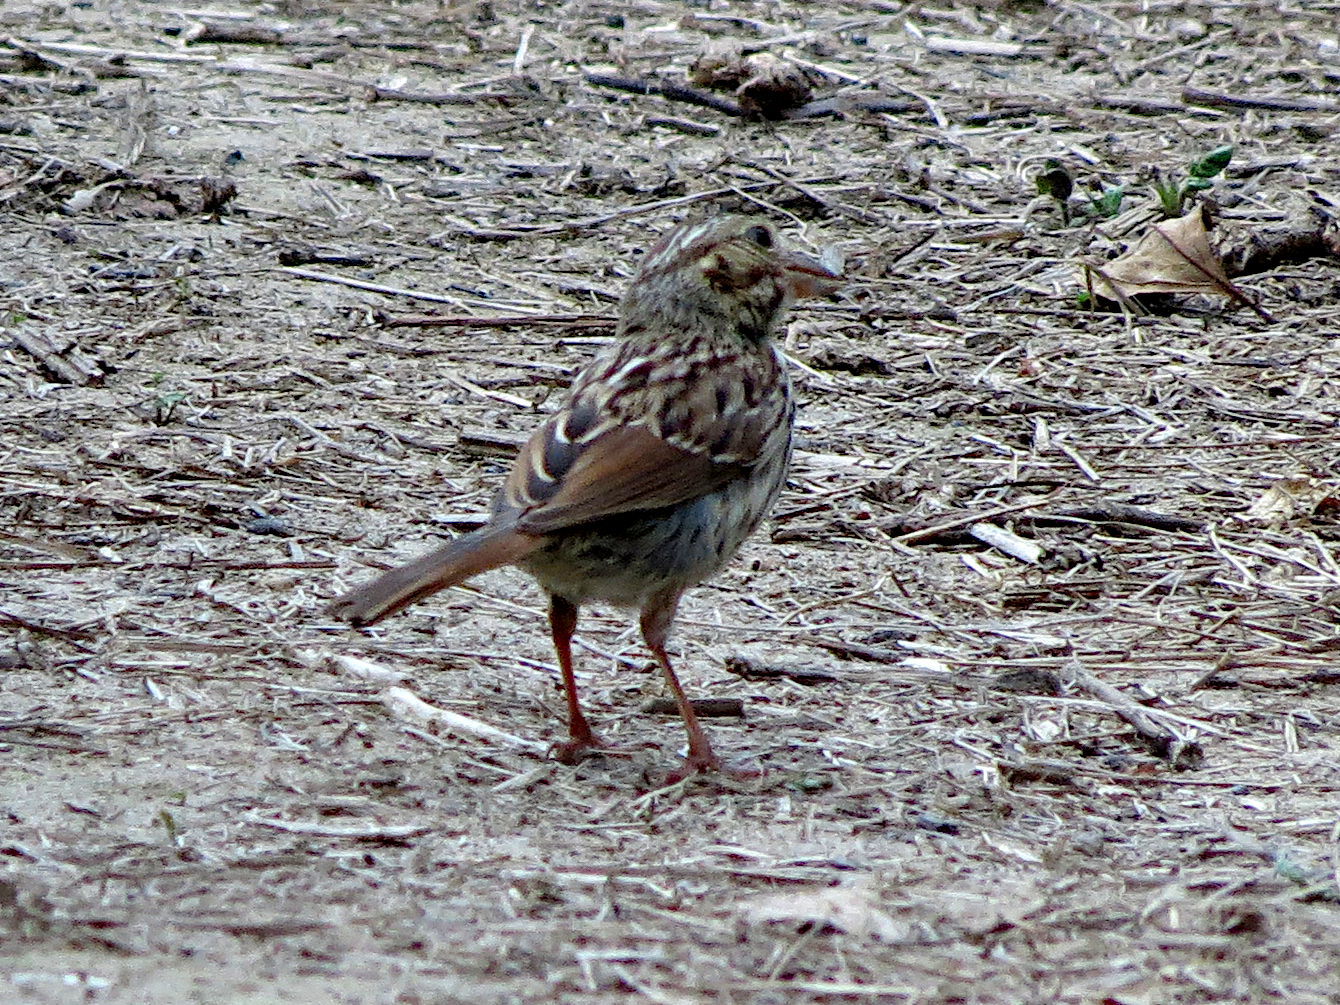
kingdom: Animalia
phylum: Chordata
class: Aves
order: Passeriformes
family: Passerellidae
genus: Melospiza
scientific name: Melospiza melodia
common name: Song sparrow
